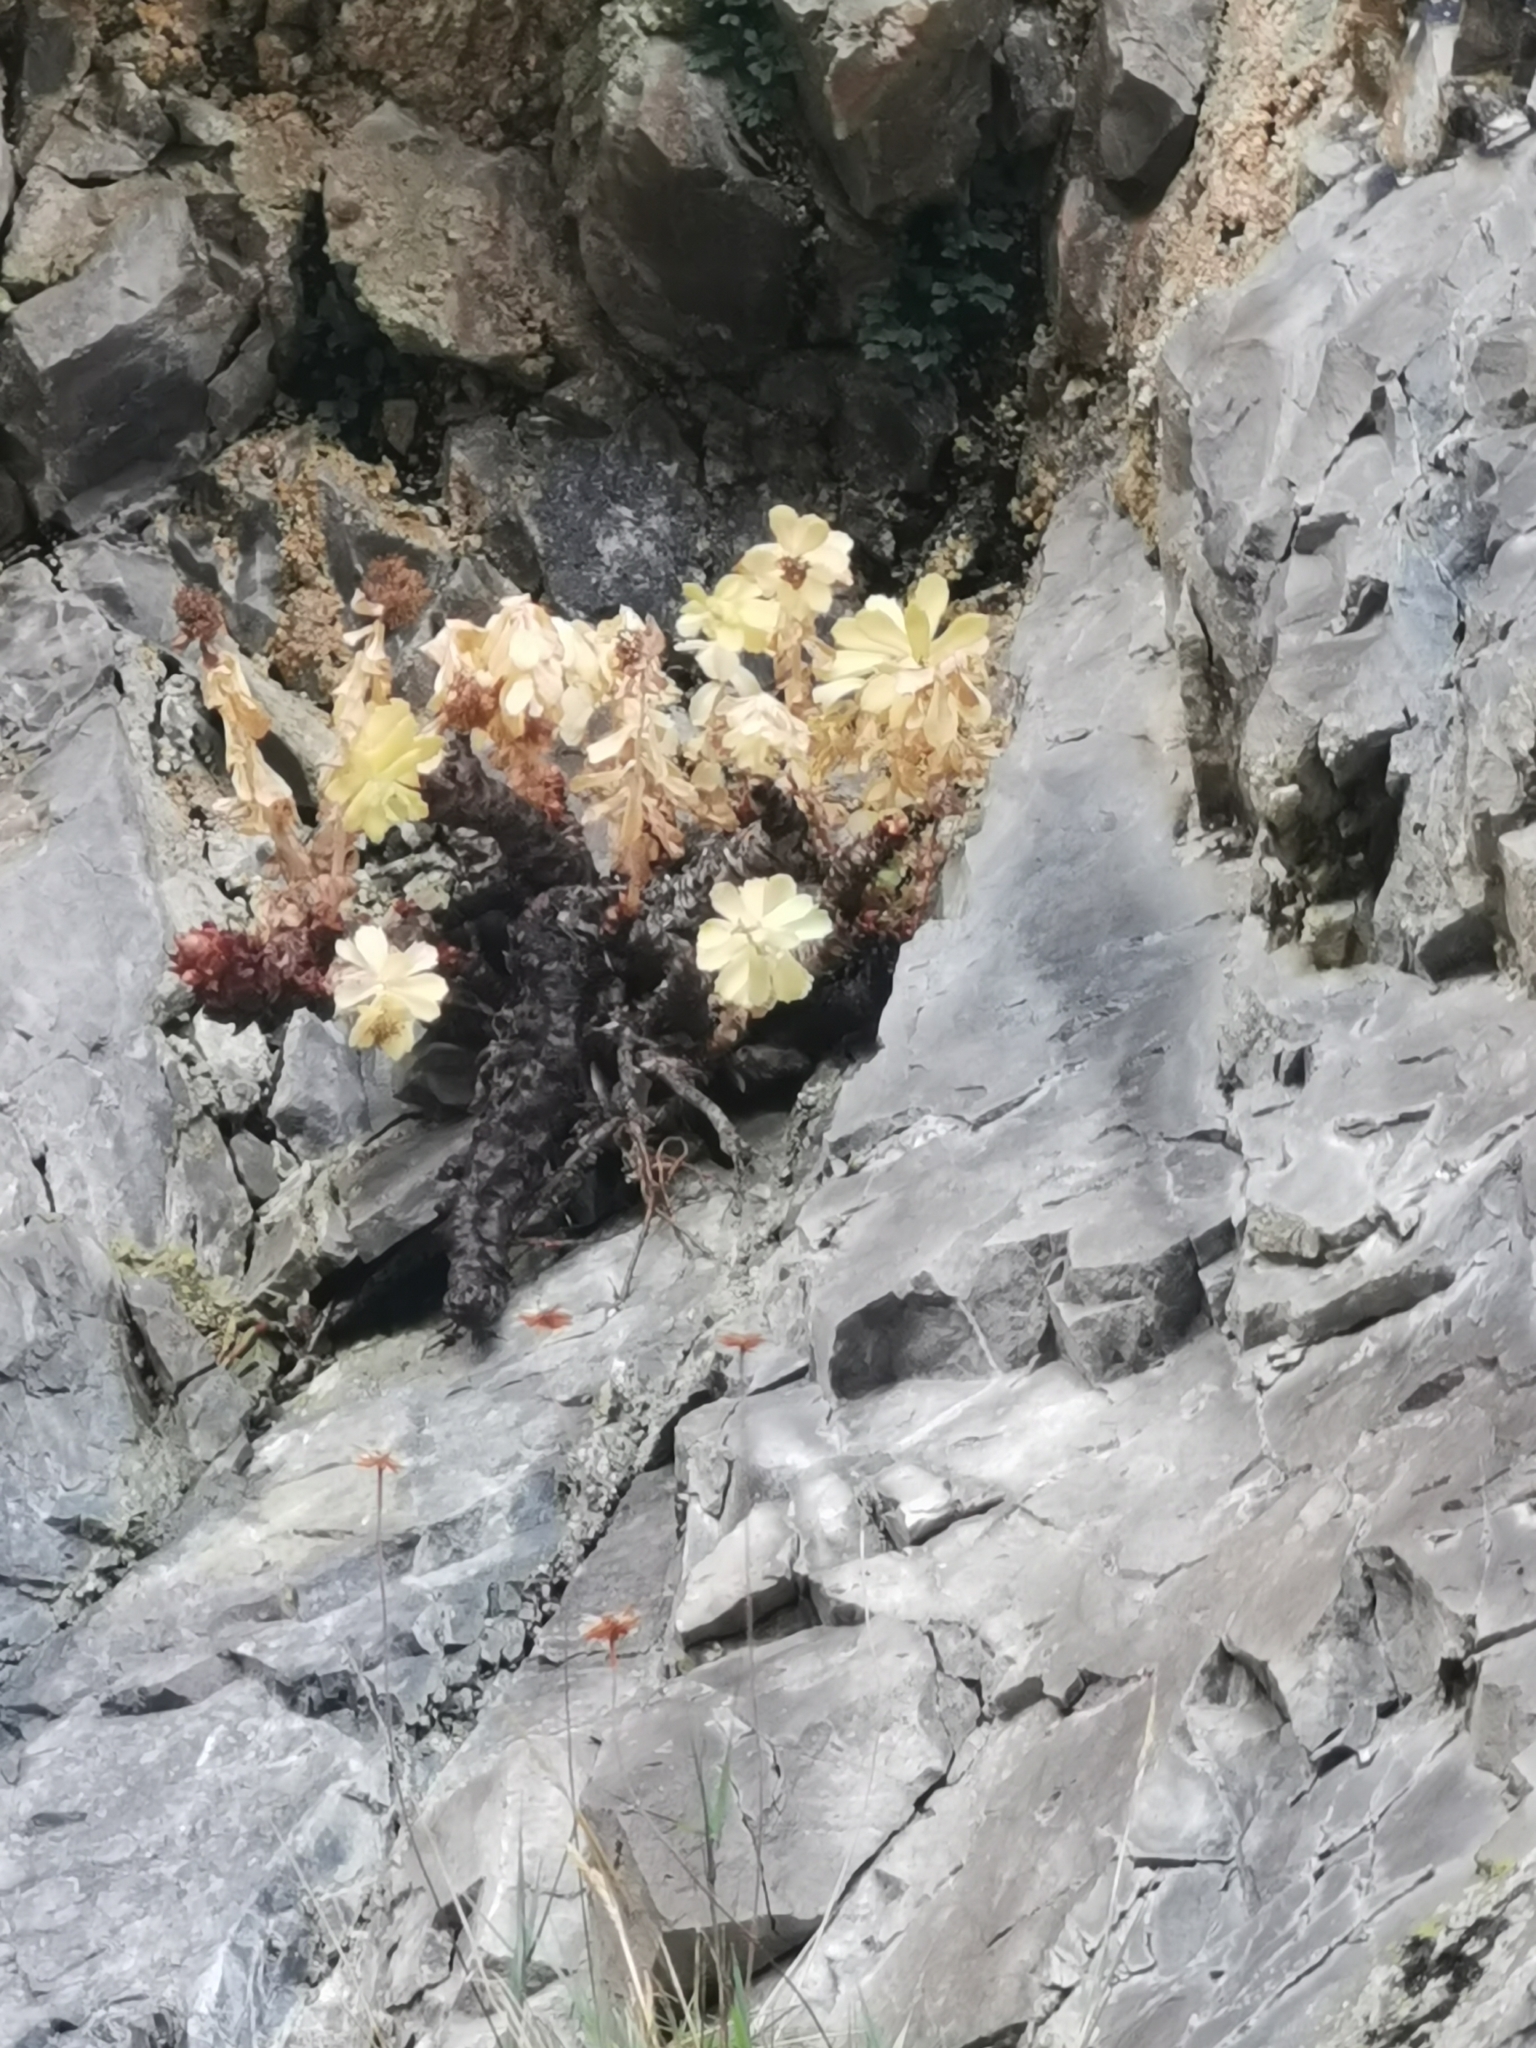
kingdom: Plantae
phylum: Tracheophyta
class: Magnoliopsida
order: Saxifragales
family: Crassulaceae
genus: Rhodiola
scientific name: Rhodiola rosea
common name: Roseroot
